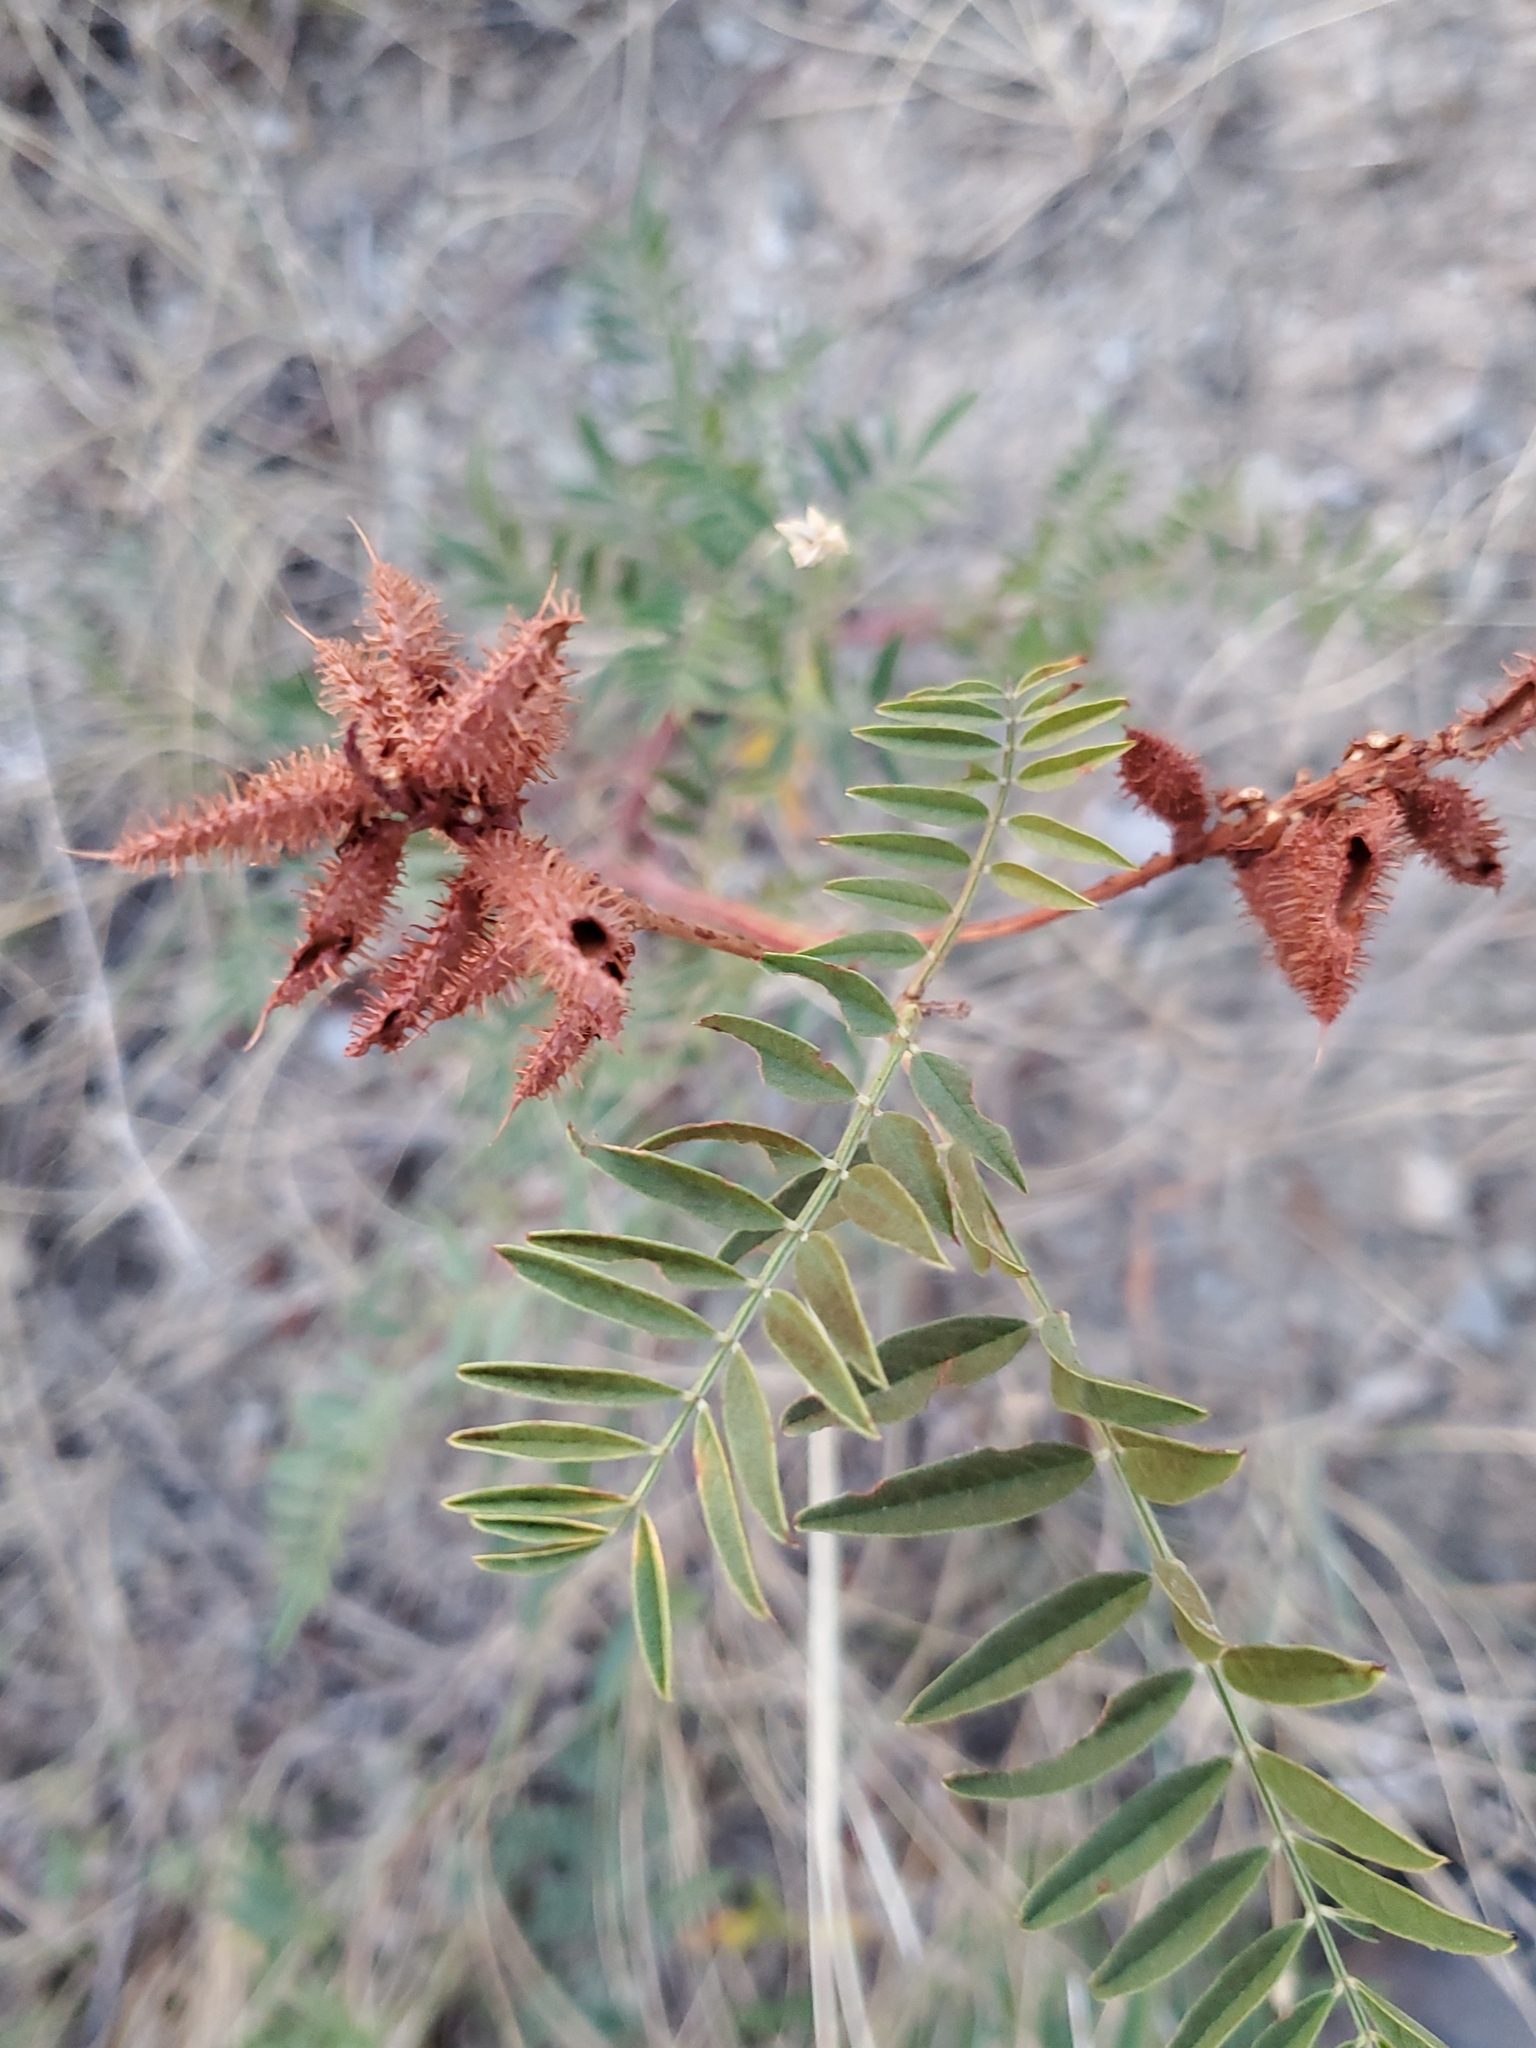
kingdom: Plantae
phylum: Tracheophyta
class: Magnoliopsida
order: Fabales
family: Fabaceae
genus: Glycyrrhiza
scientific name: Glycyrrhiza lepidota
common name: American liquorice
